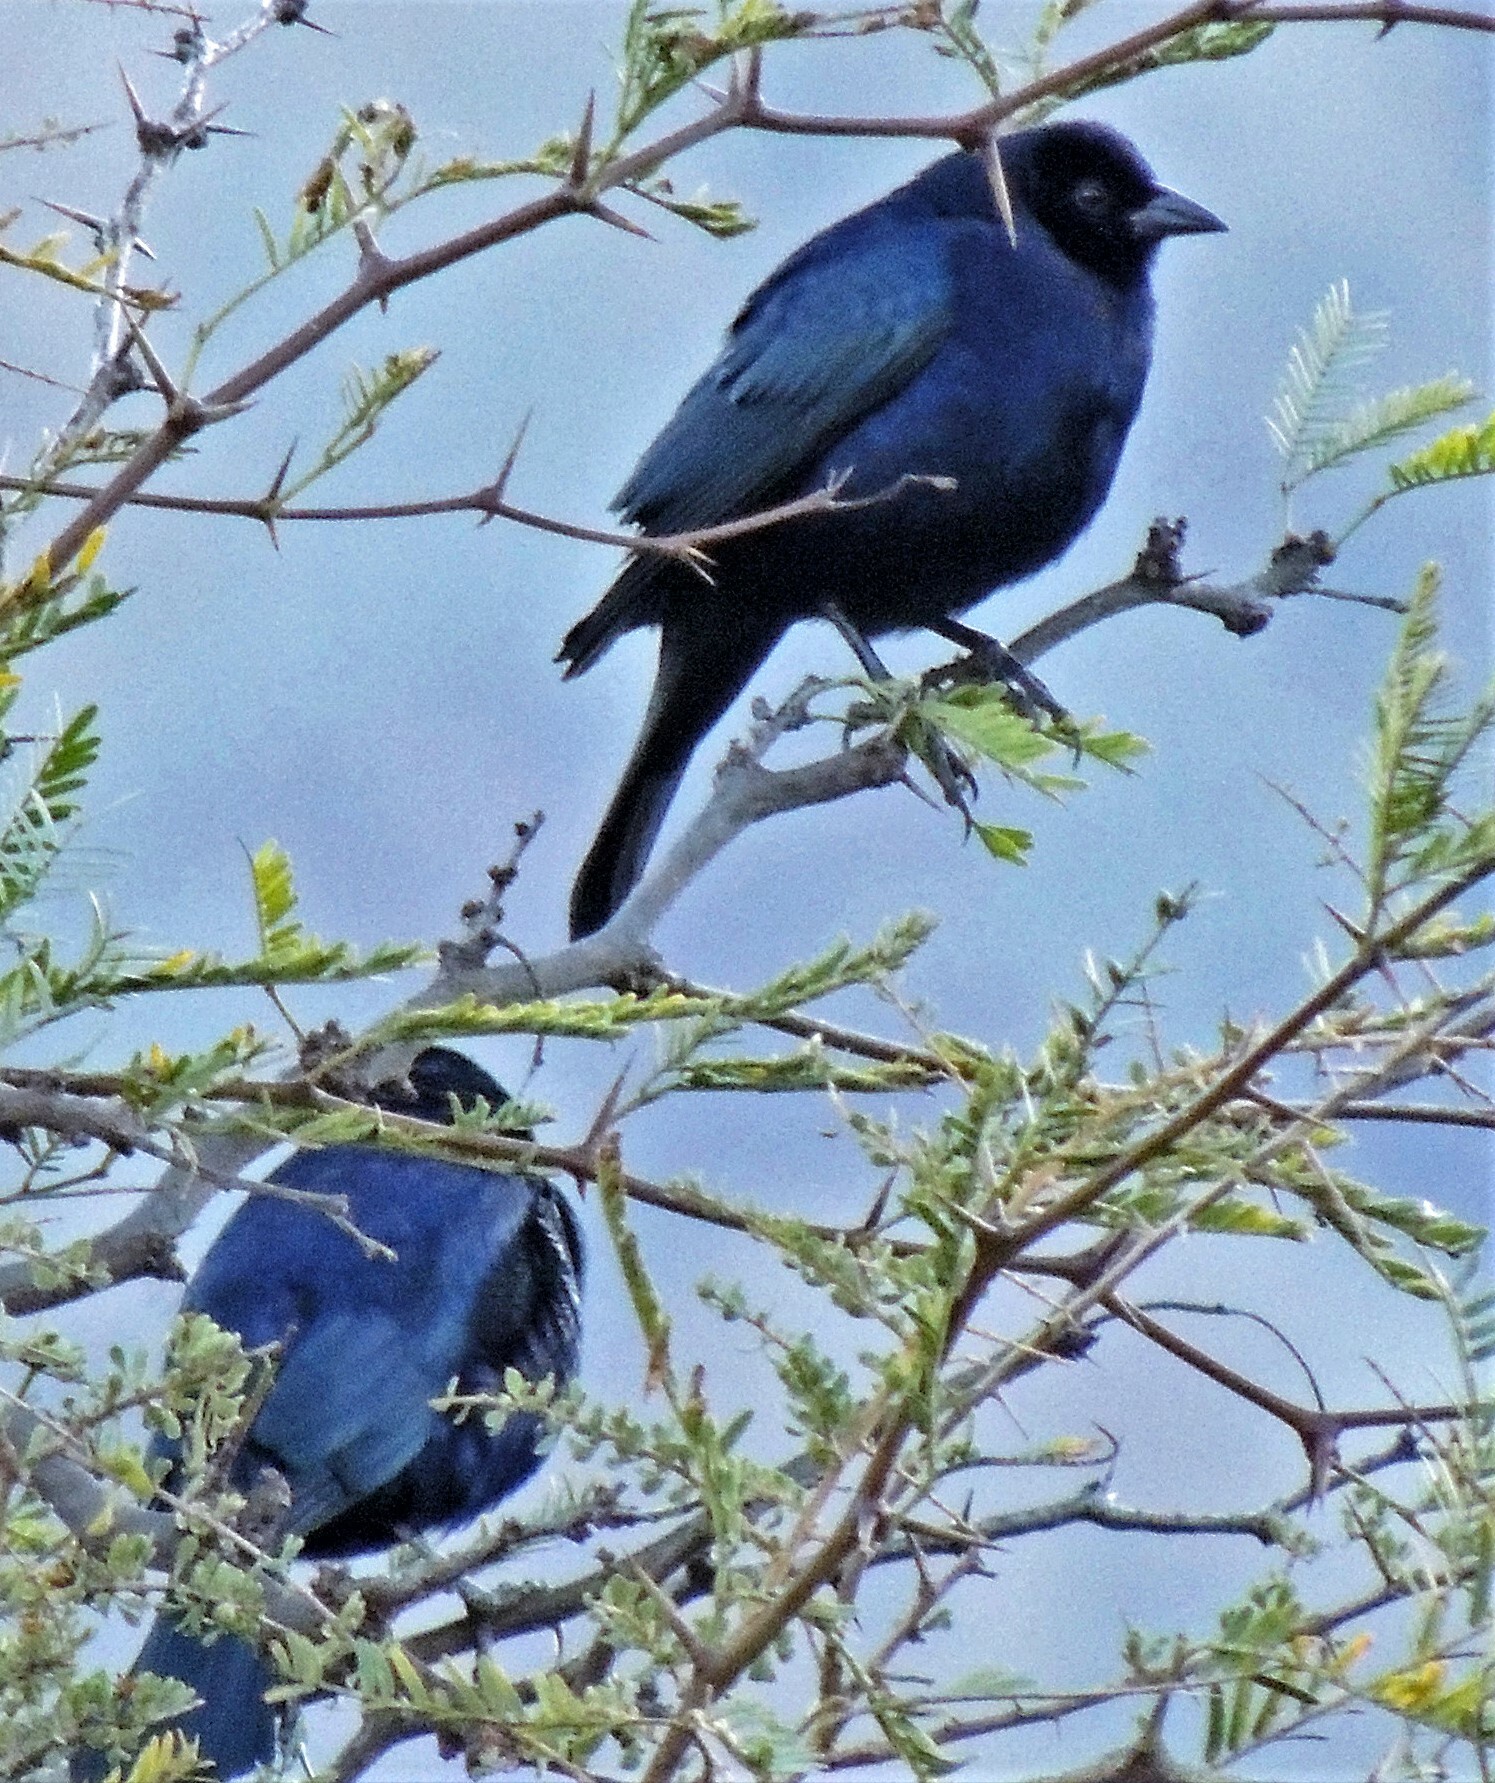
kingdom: Animalia
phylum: Chordata
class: Aves
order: Passeriformes
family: Icteridae
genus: Molothrus
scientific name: Molothrus bonariensis
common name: Shiny cowbird
